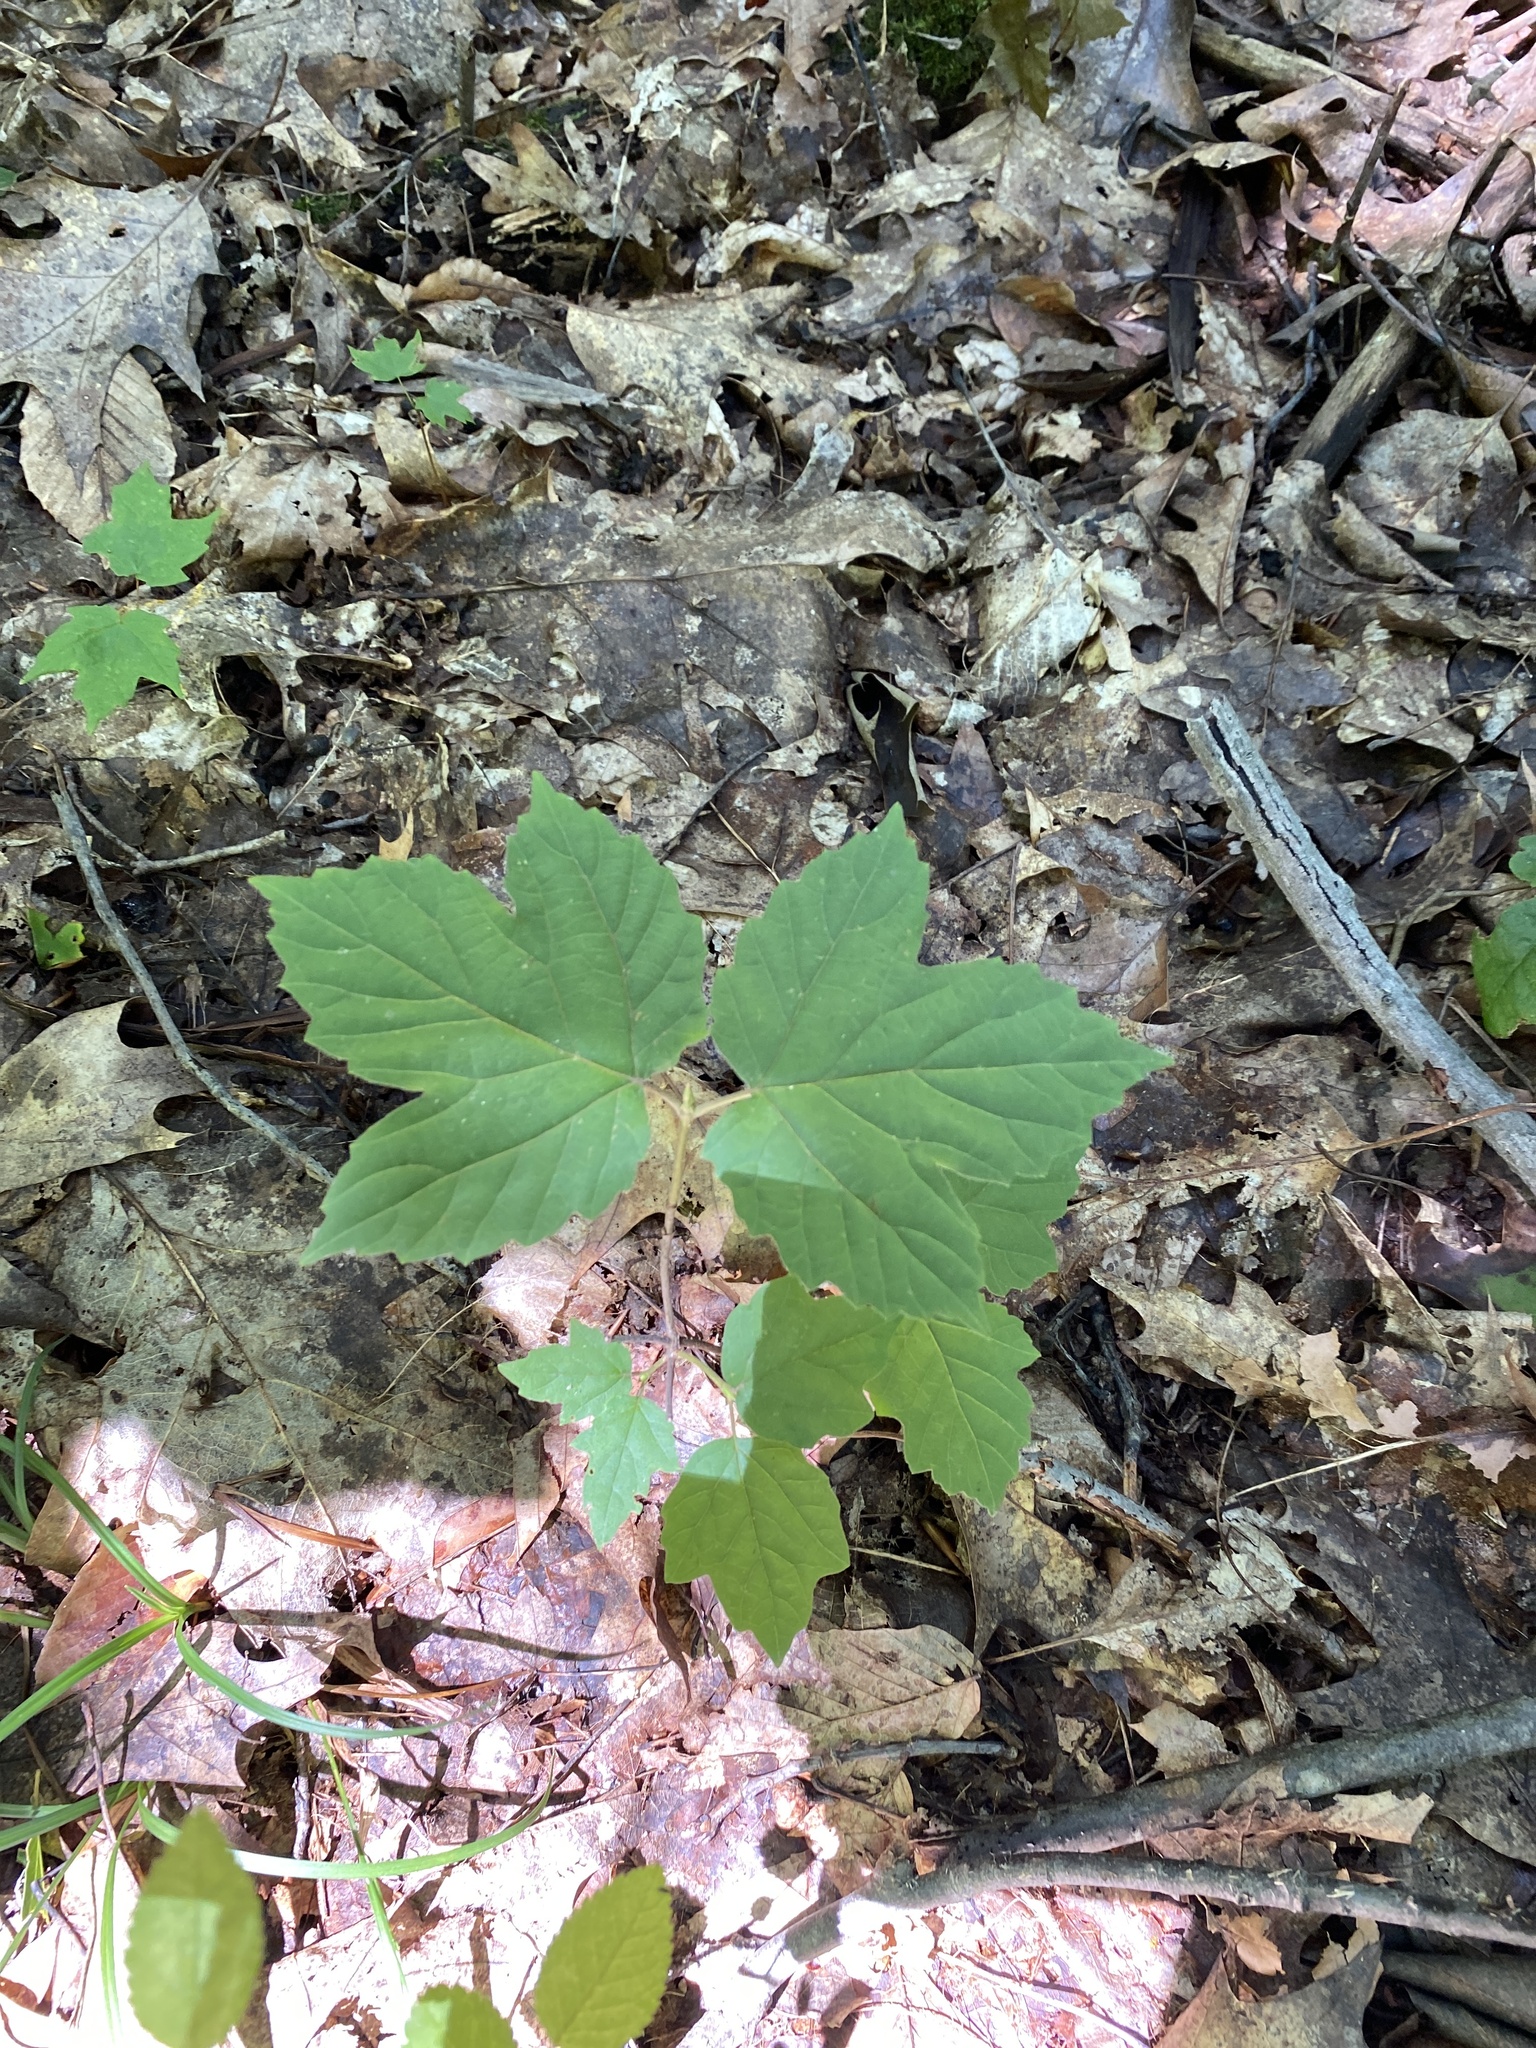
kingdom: Plantae
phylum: Tracheophyta
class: Magnoliopsida
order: Dipsacales
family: Viburnaceae
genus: Viburnum
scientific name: Viburnum acerifolium
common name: Dockmackie
